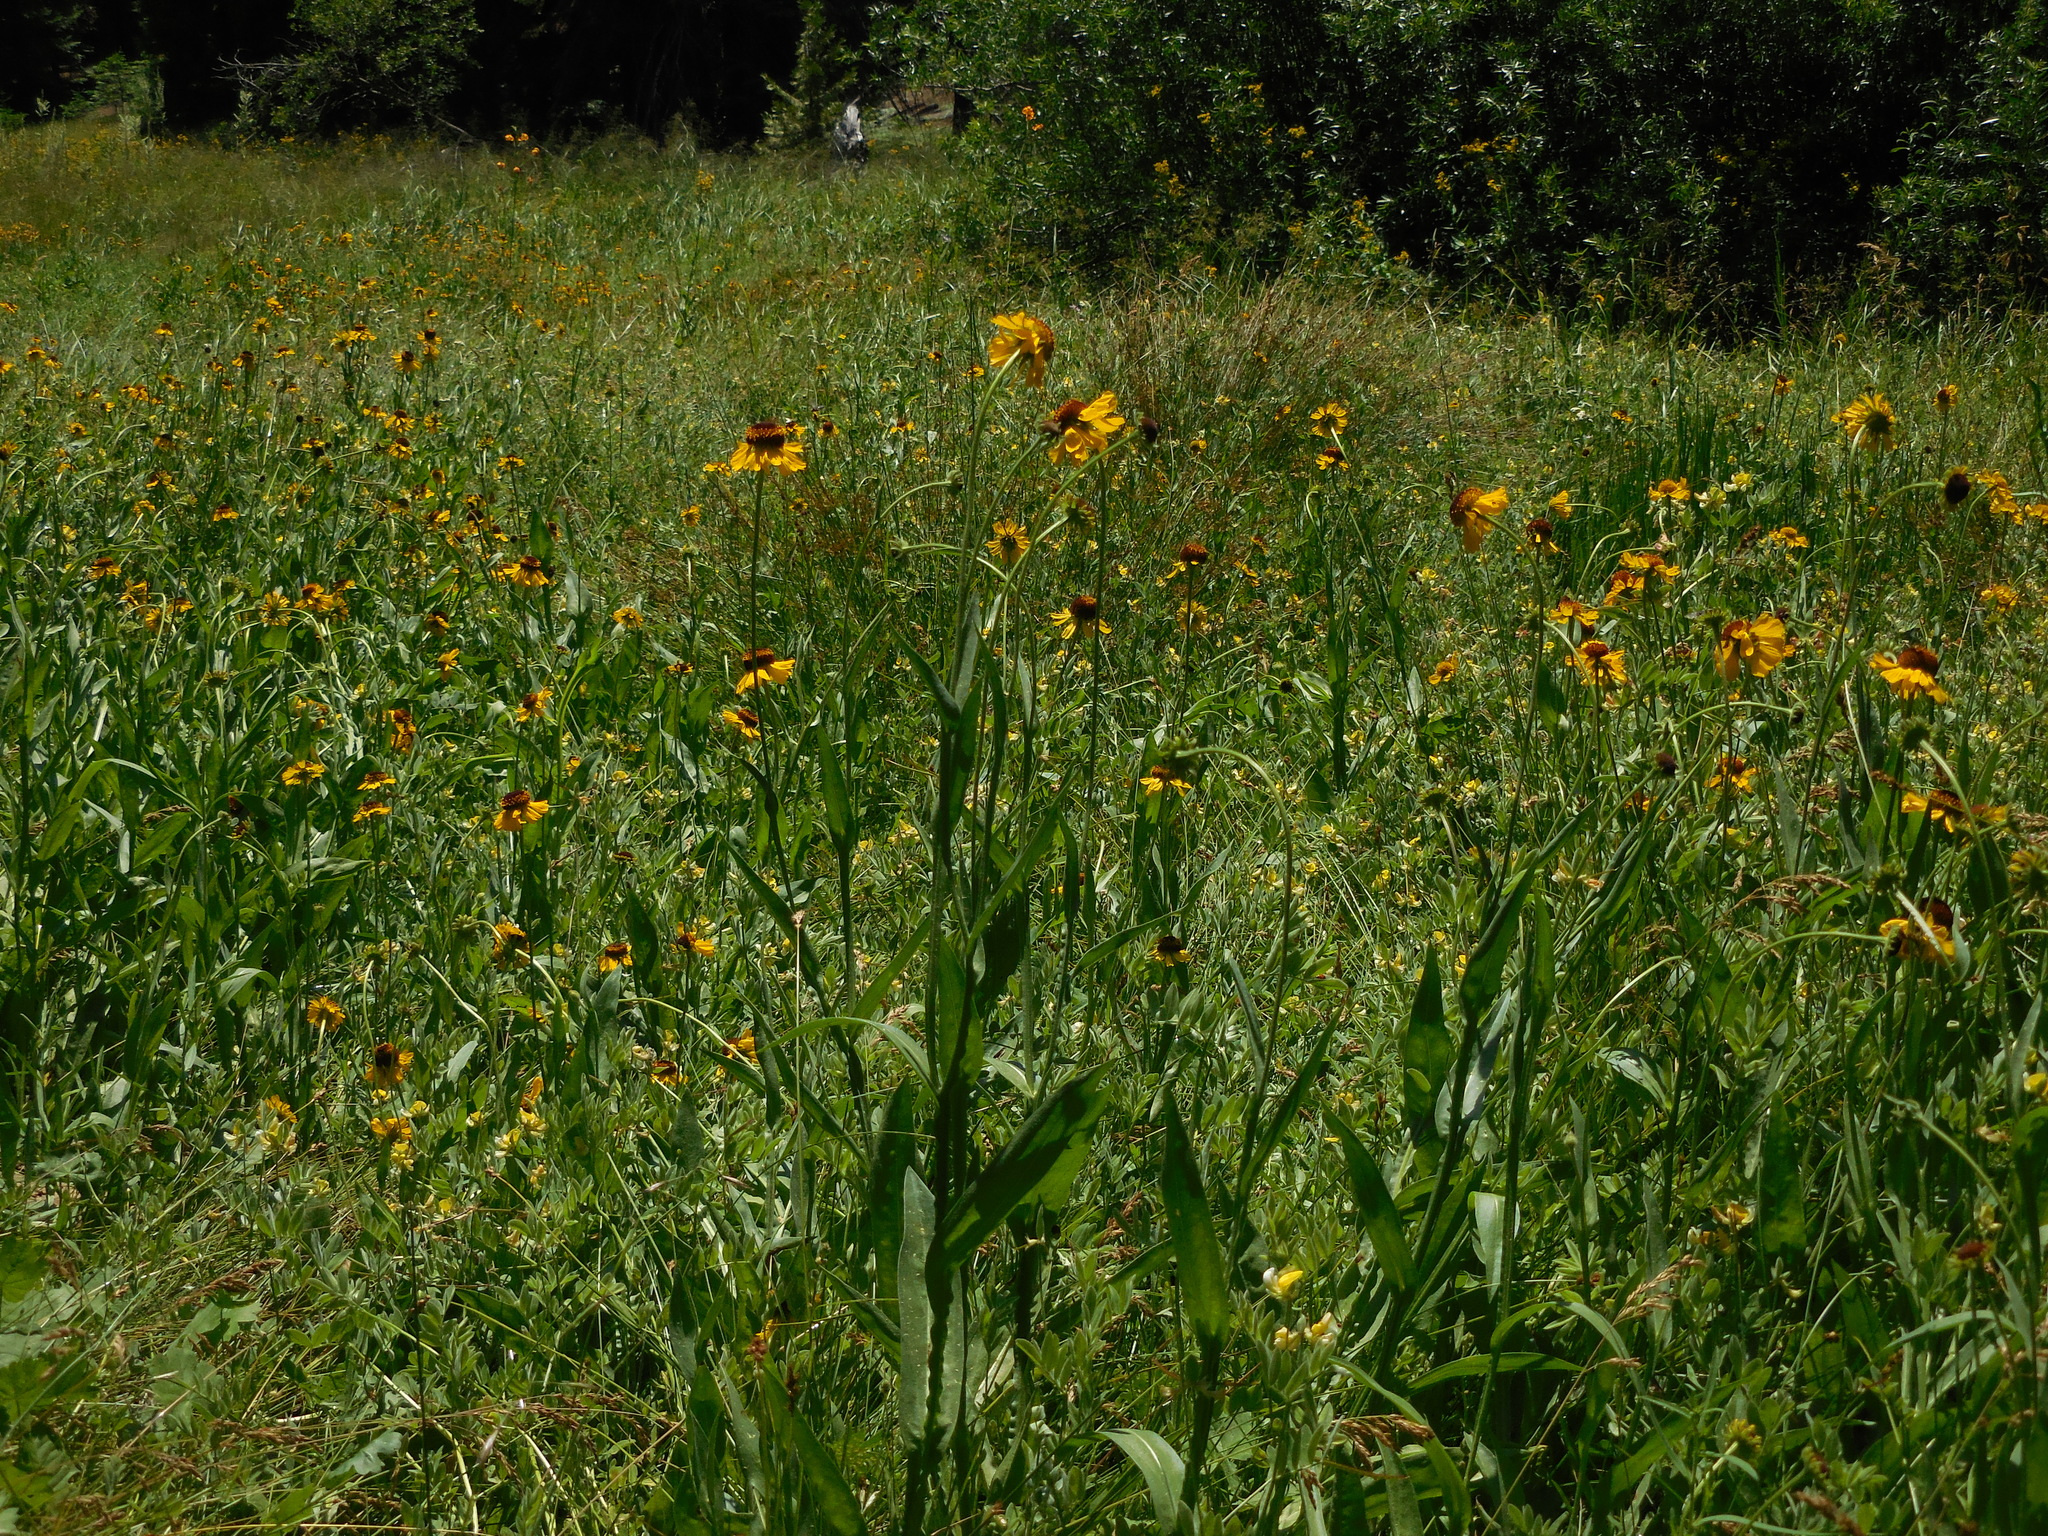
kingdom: Plantae
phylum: Tracheophyta
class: Magnoliopsida
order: Asterales
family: Asteraceae
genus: Helenium
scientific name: Helenium bigelovii
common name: Bigelow's sneezeweed
